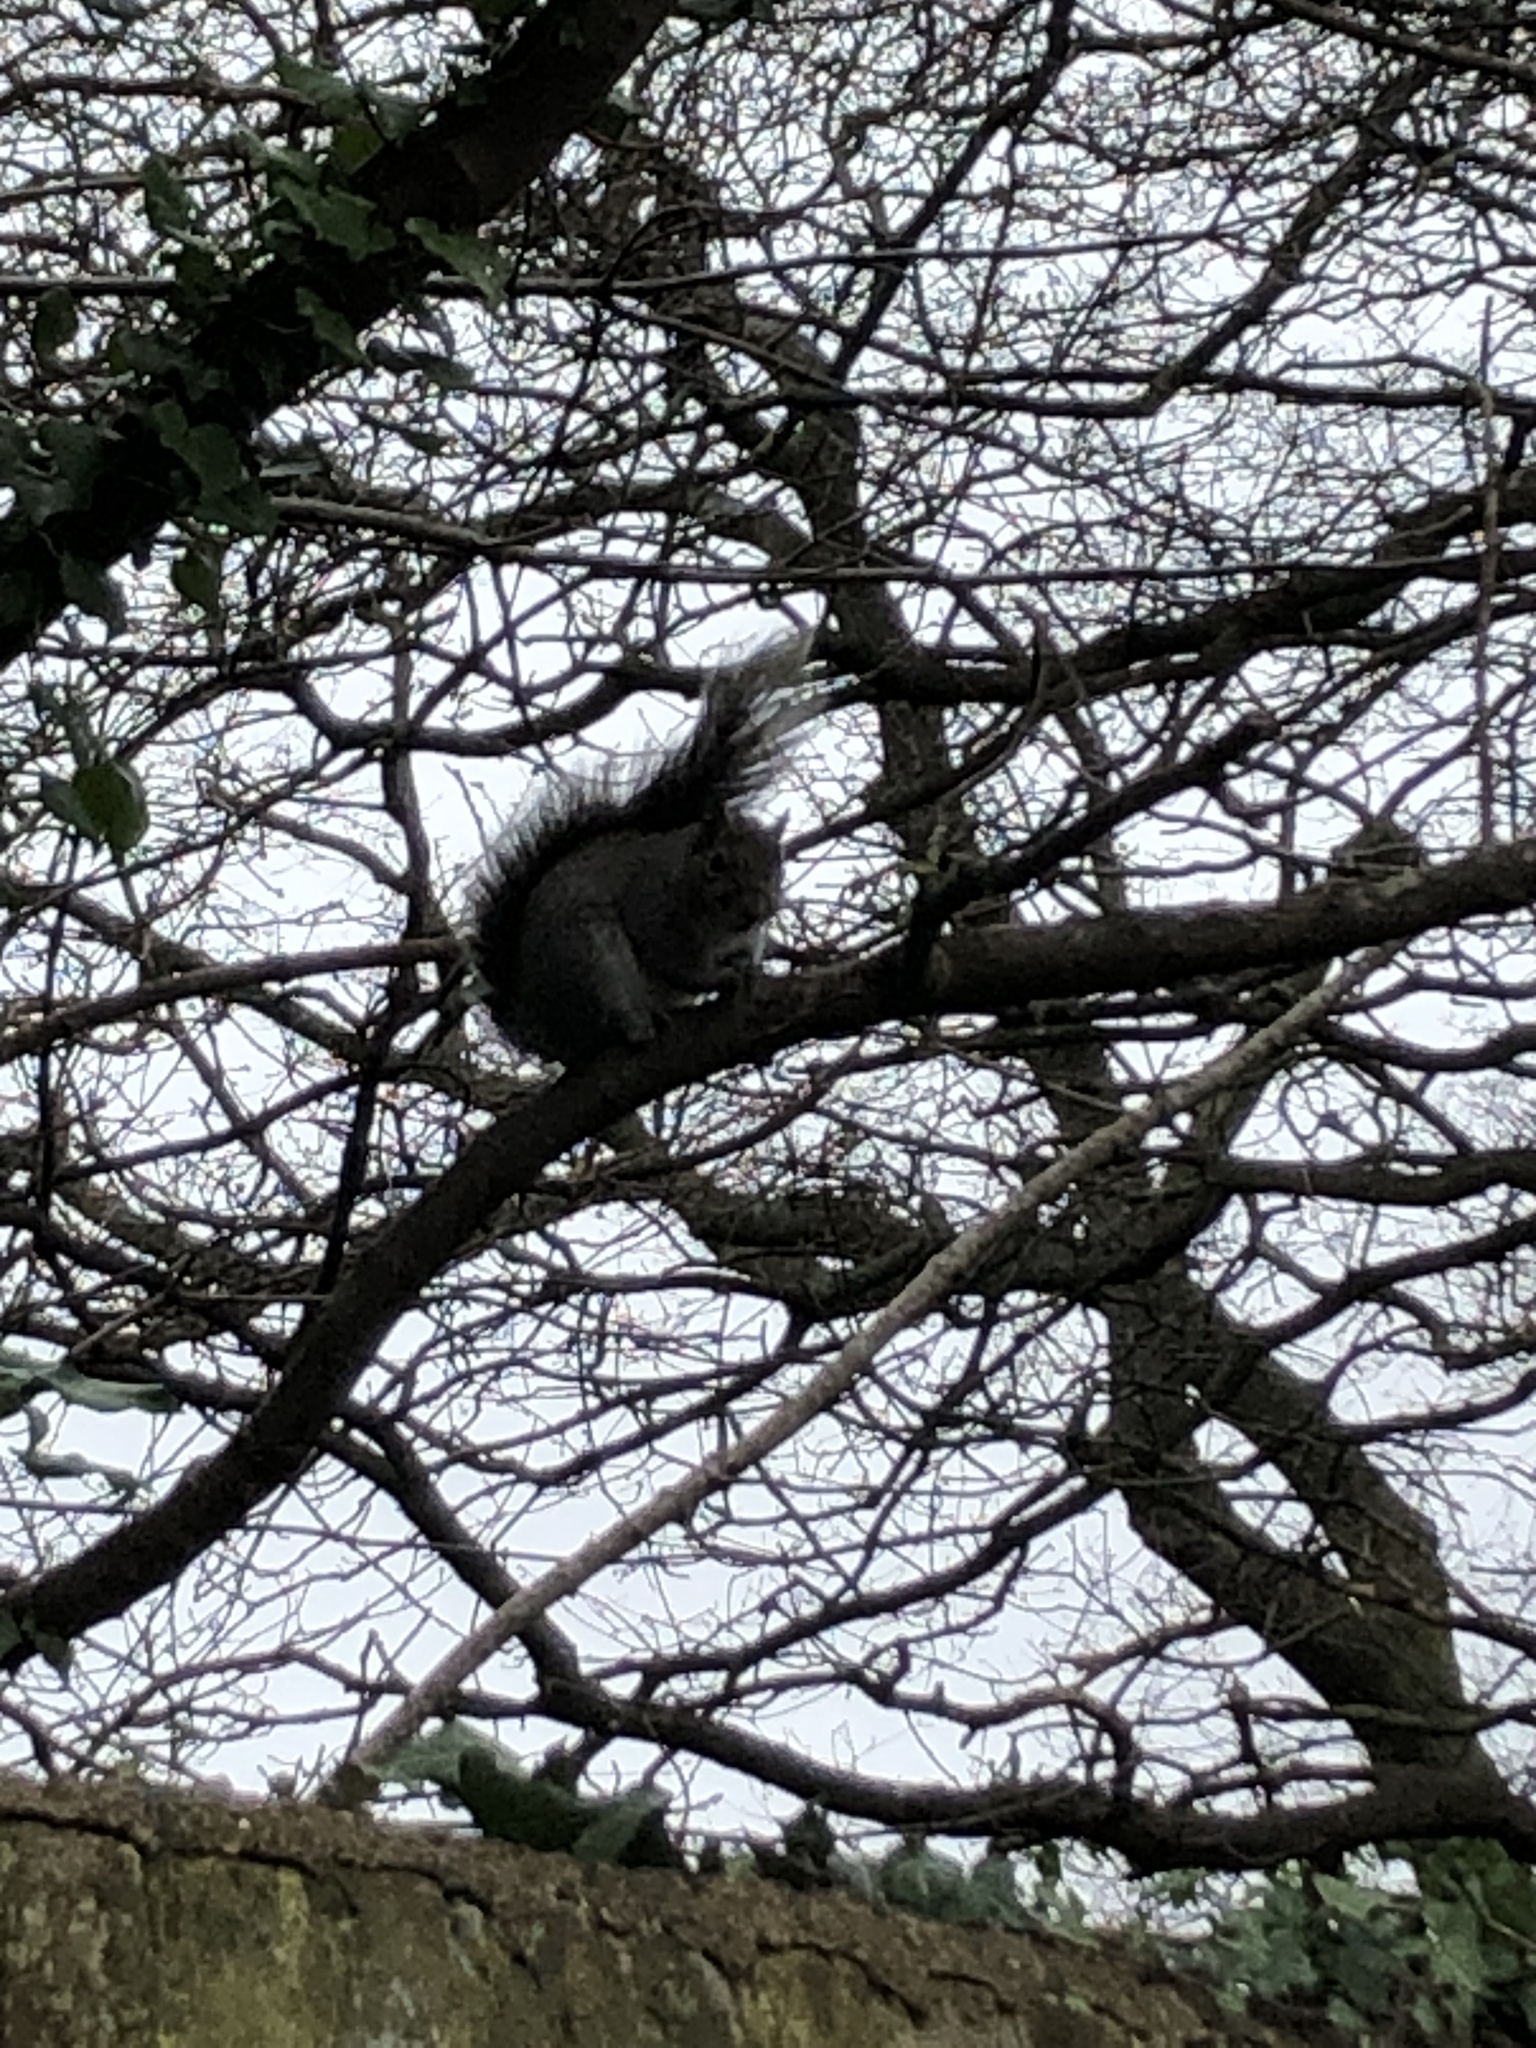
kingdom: Animalia
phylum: Chordata
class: Mammalia
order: Rodentia
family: Sciuridae
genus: Sciurus
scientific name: Sciurus carolinensis
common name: Eastern gray squirrel
